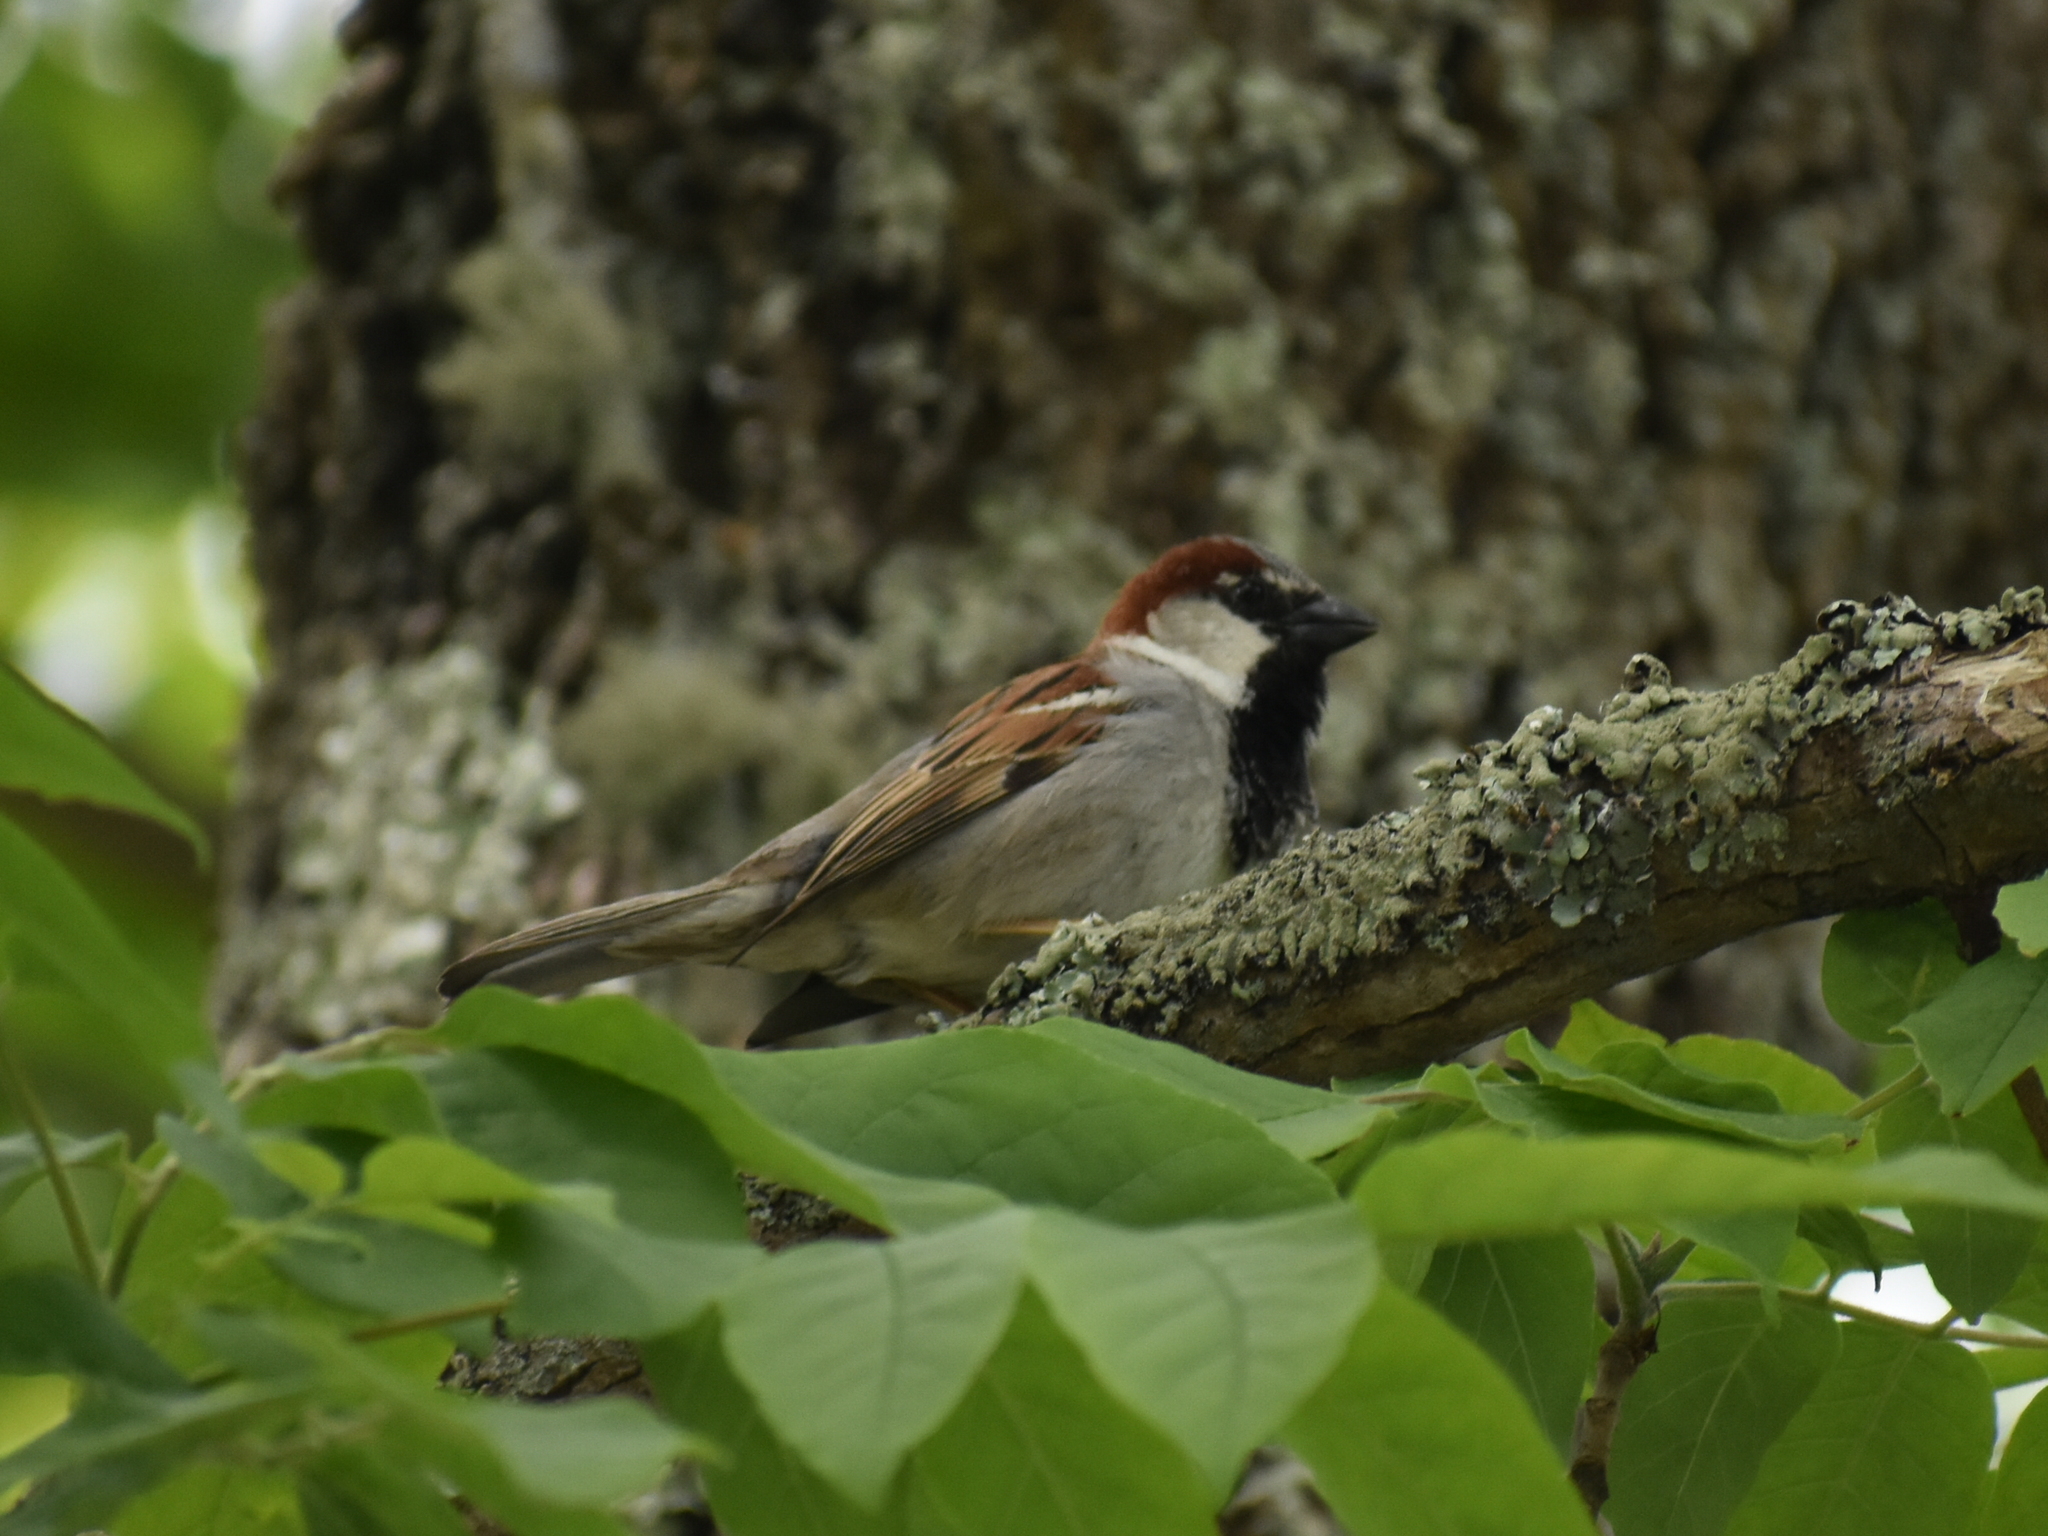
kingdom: Animalia
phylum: Chordata
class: Aves
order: Passeriformes
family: Passeridae
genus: Passer
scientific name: Passer domesticus
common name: House sparrow
